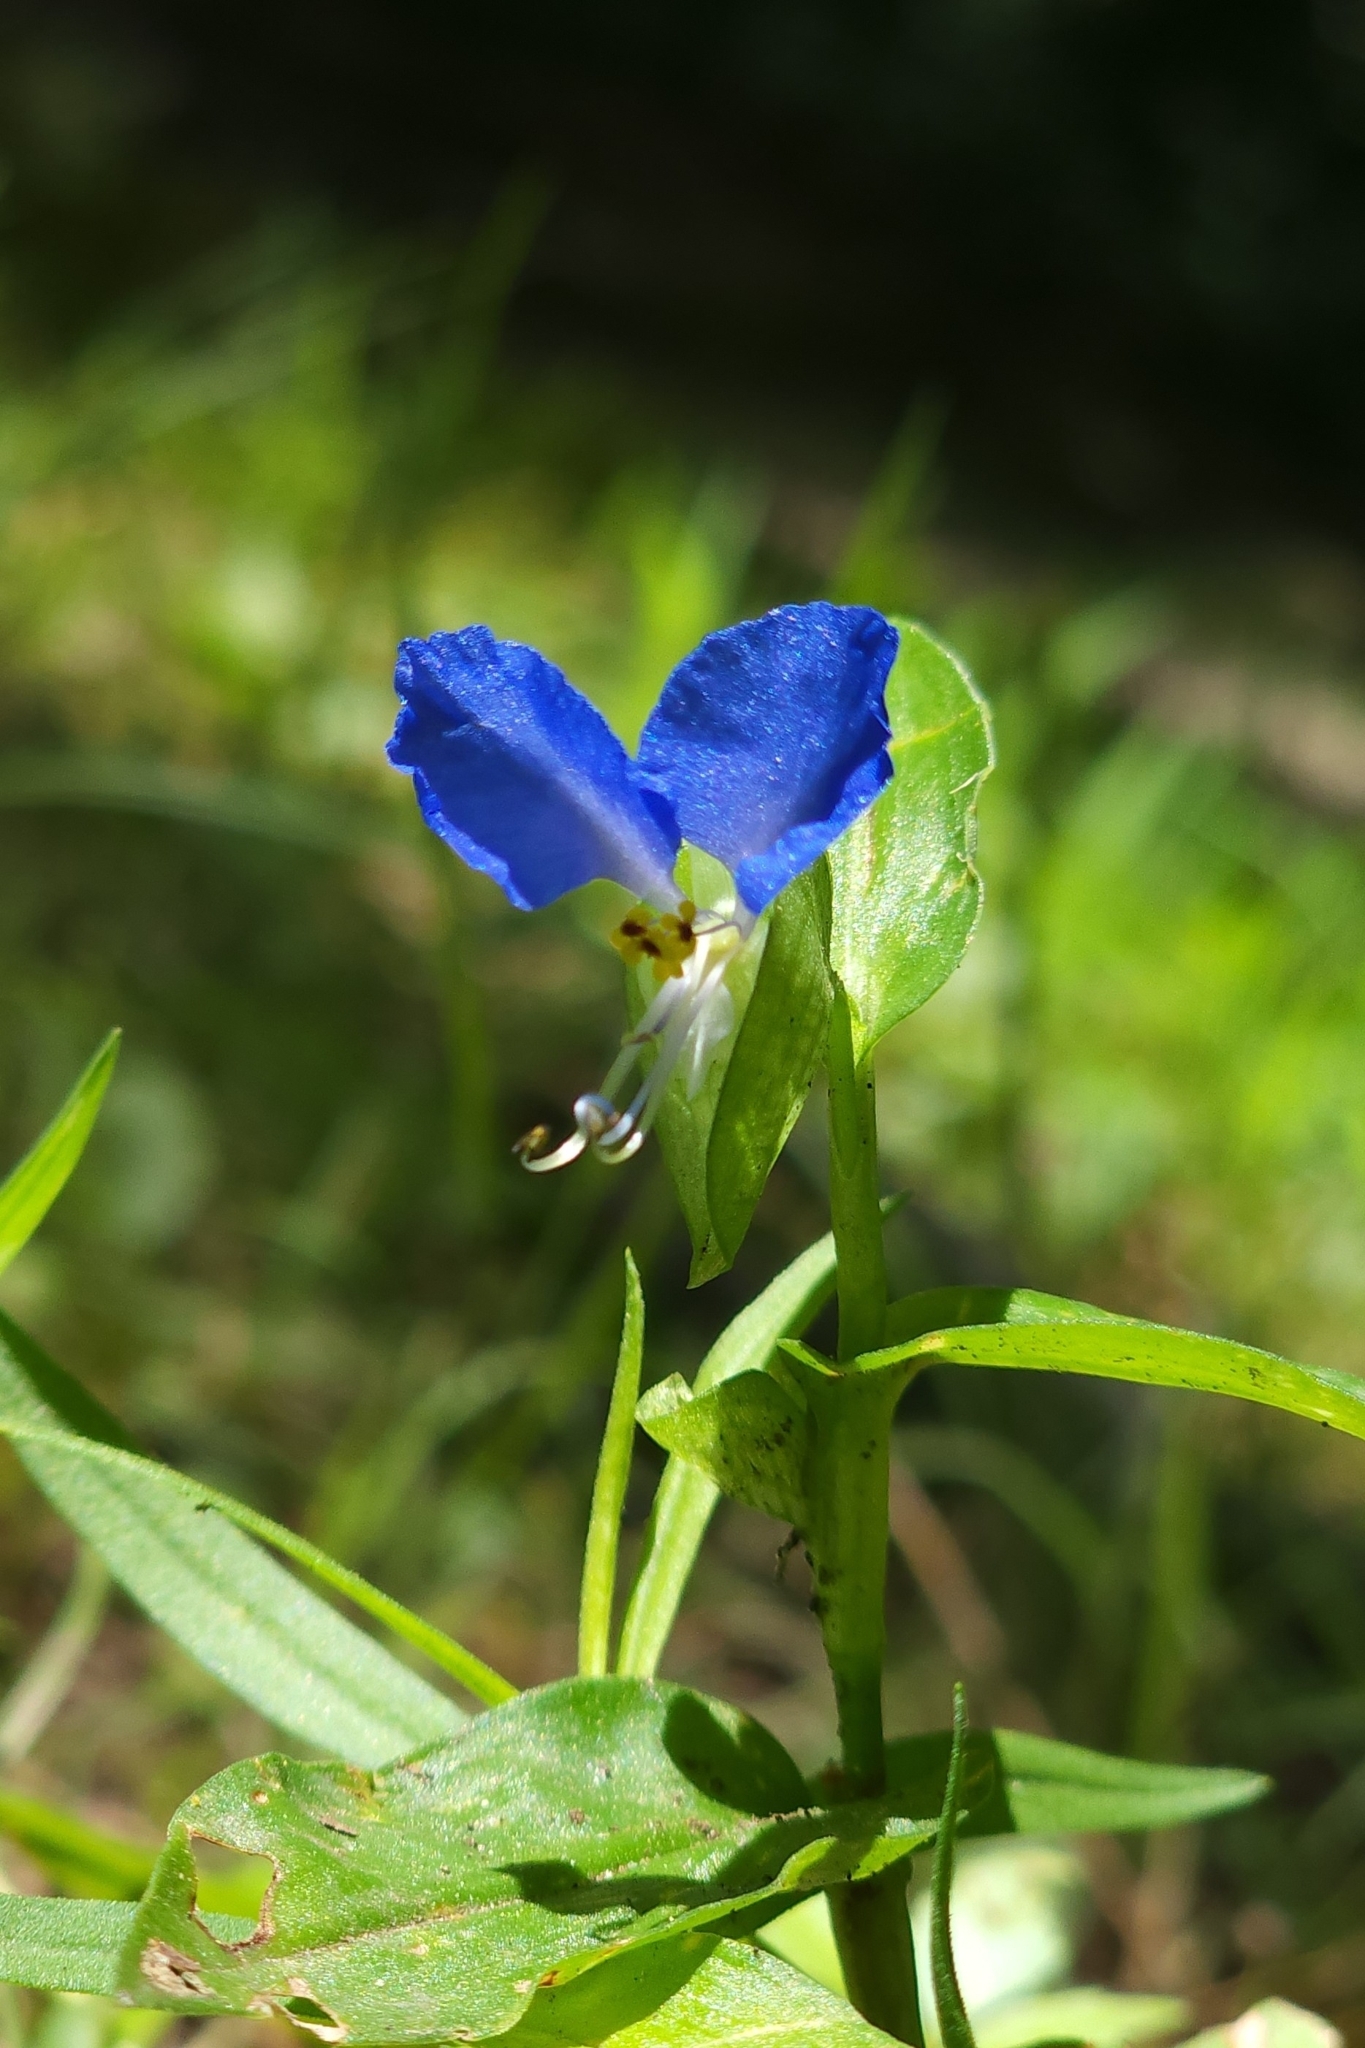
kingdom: Plantae
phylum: Tracheophyta
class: Liliopsida
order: Commelinales
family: Commelinaceae
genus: Commelina
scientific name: Commelina communis
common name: Asiatic dayflower
